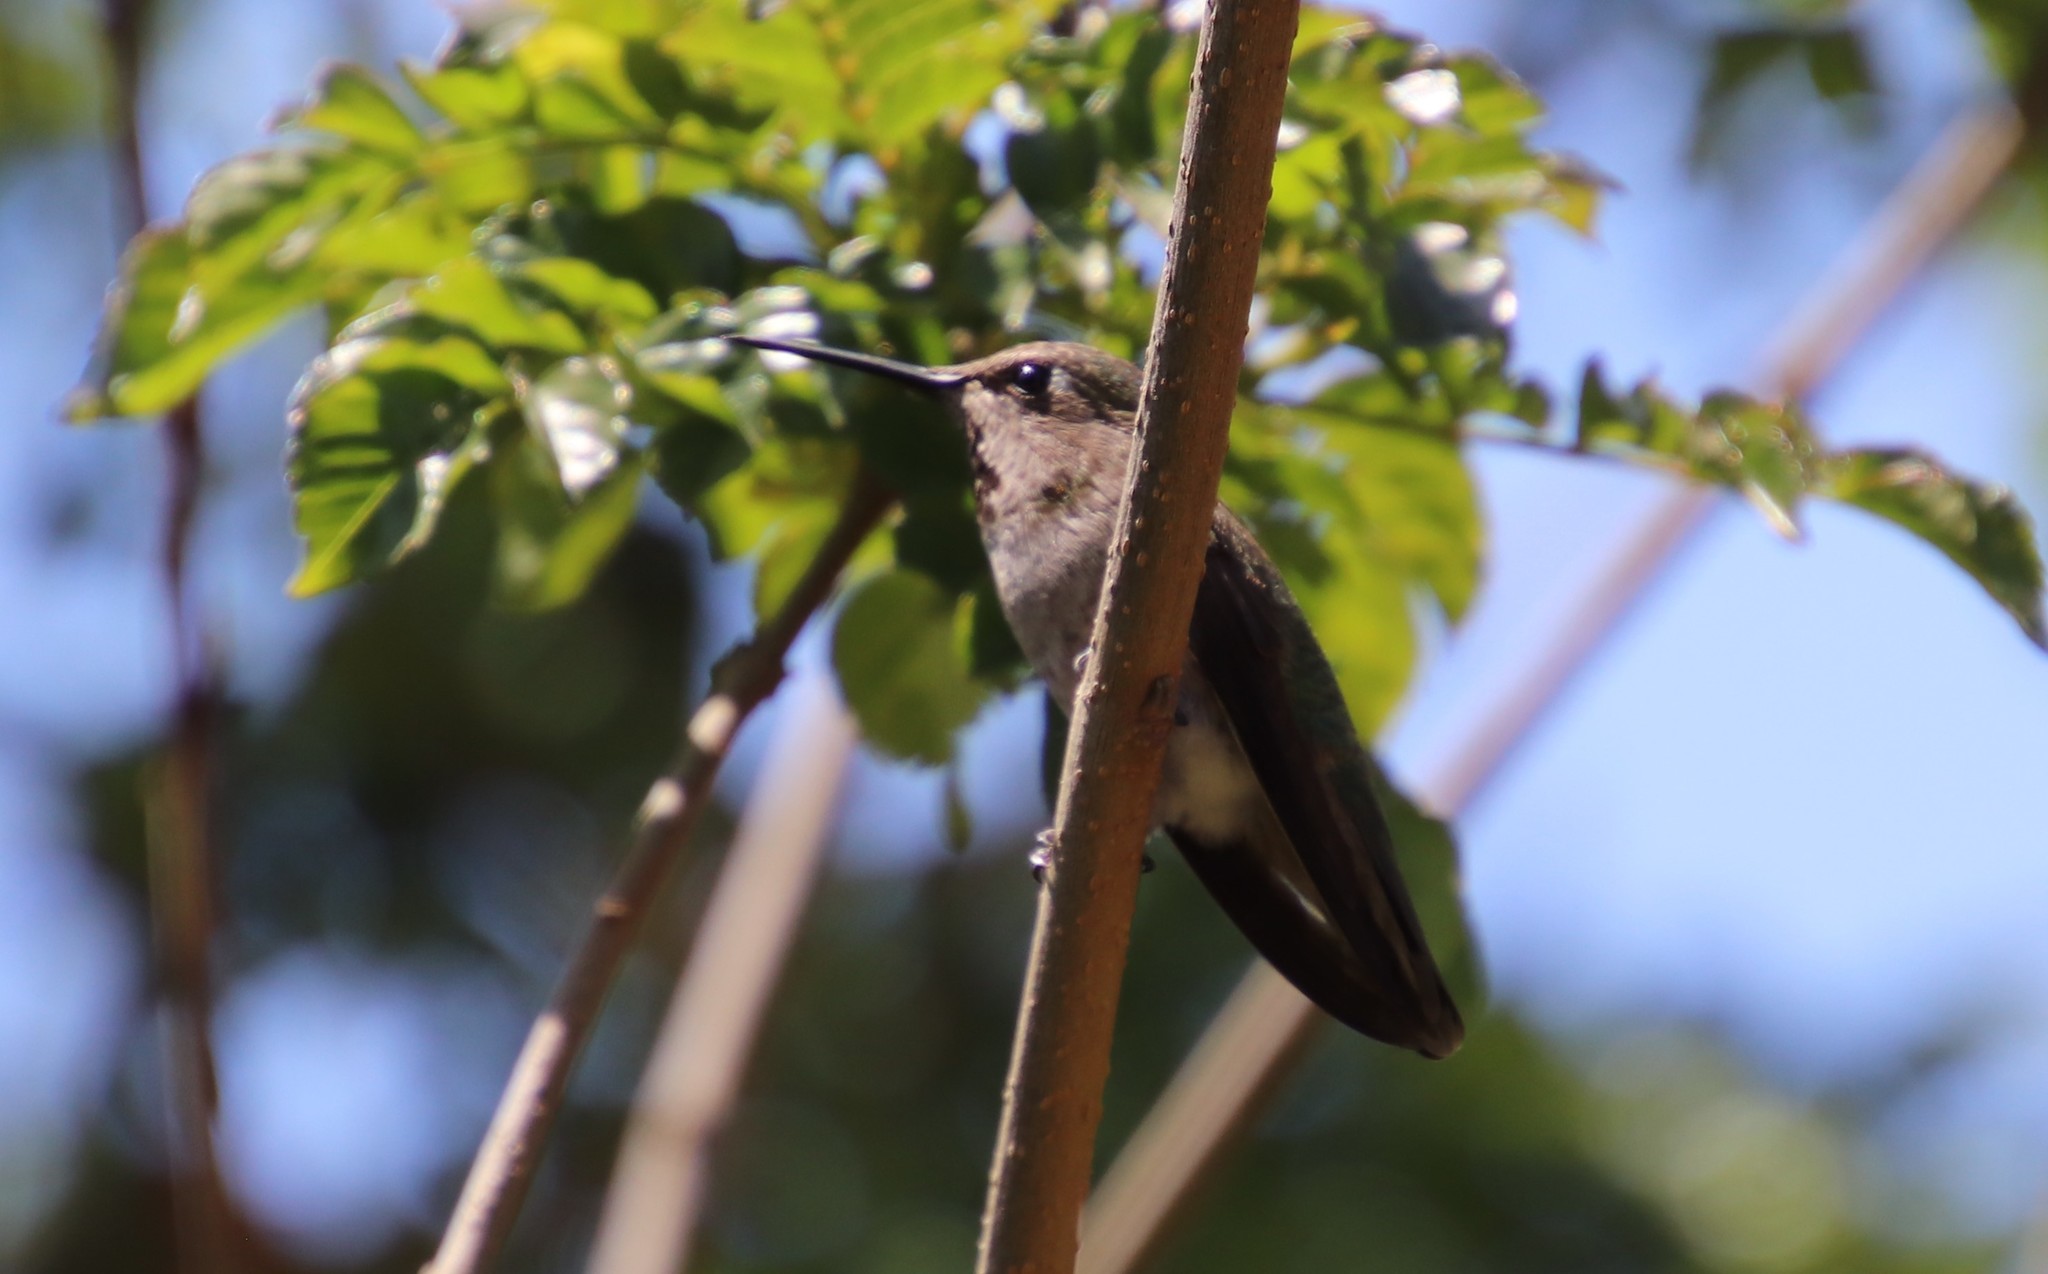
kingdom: Animalia
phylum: Chordata
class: Aves
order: Apodiformes
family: Trochilidae
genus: Calypte
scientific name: Calypte anna
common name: Anna's hummingbird
